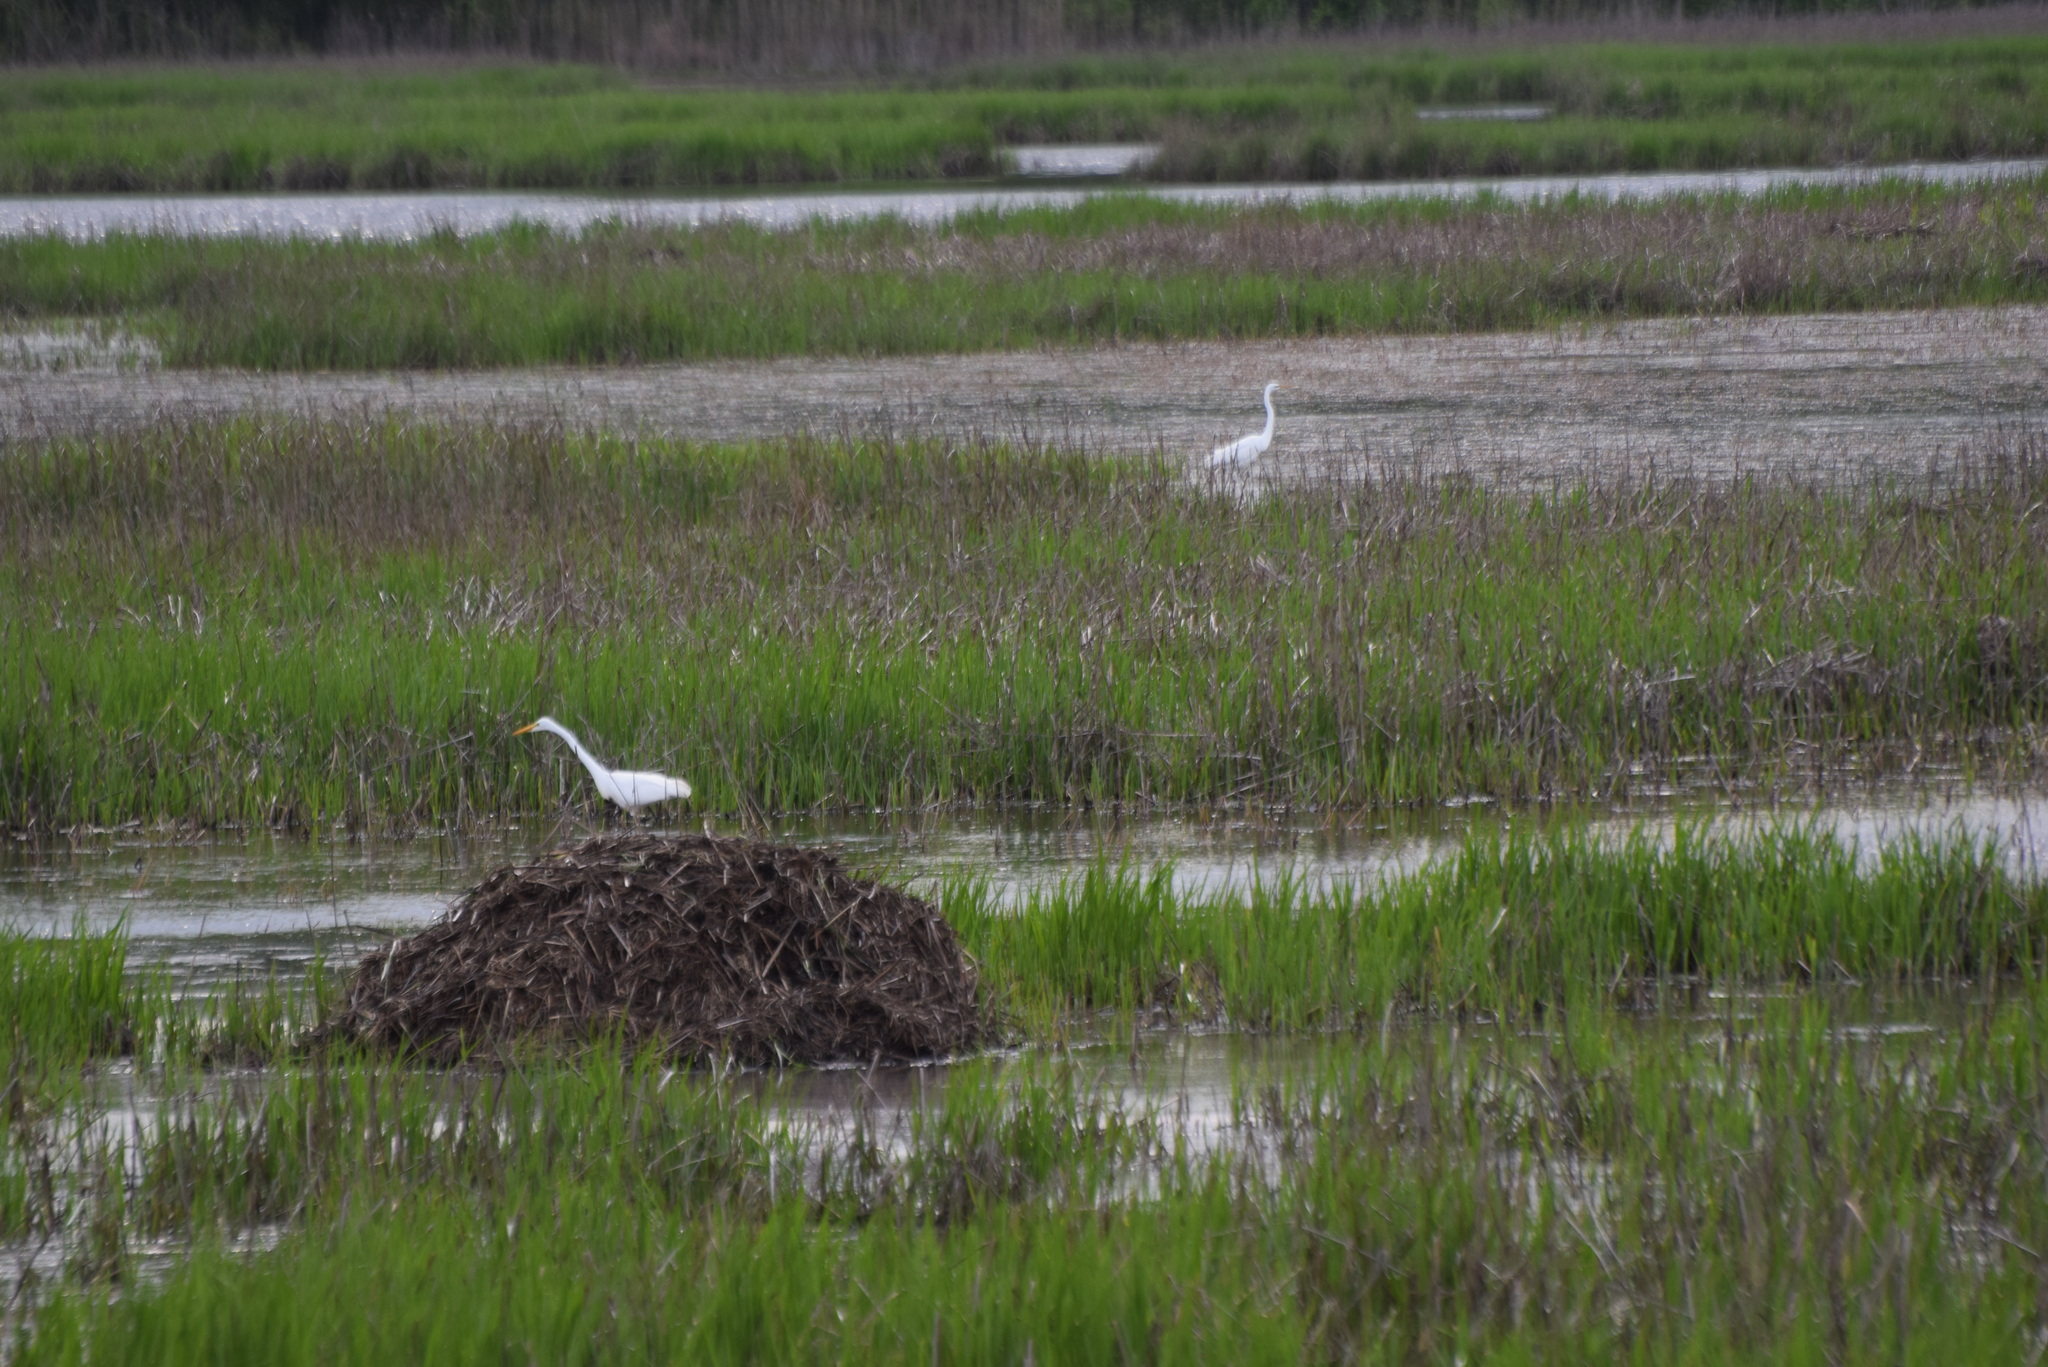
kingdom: Animalia
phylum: Chordata
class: Aves
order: Pelecaniformes
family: Ardeidae
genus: Ardea
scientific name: Ardea alba
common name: Great egret
